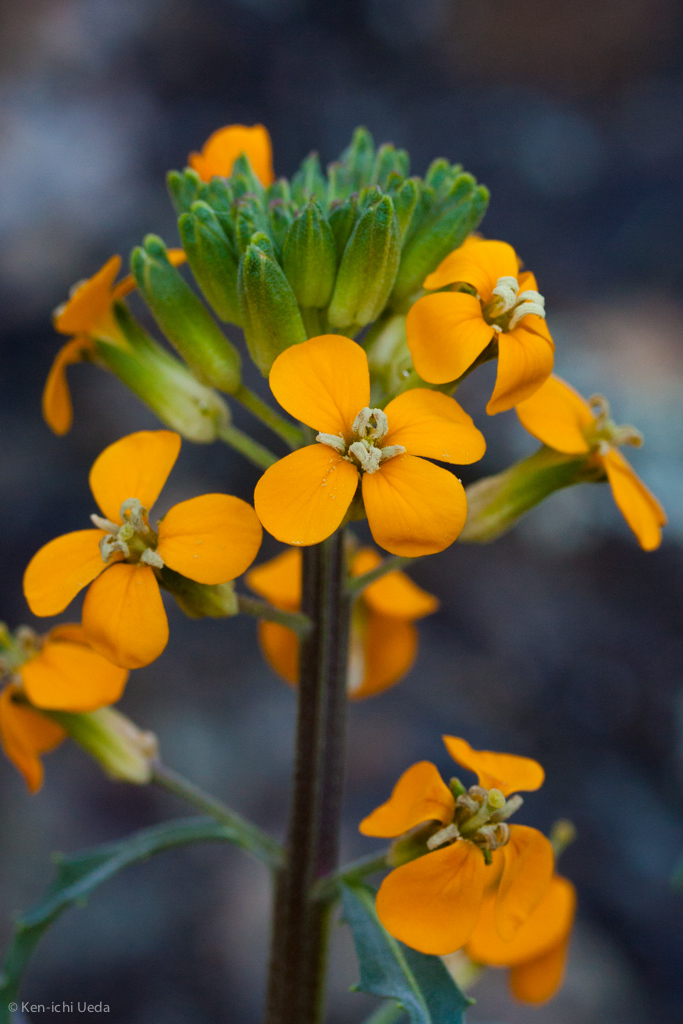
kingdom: Plantae
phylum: Tracheophyta
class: Magnoliopsida
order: Brassicales
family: Brassicaceae
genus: Erysimum
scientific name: Erysimum capitatum
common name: Western wallflower
